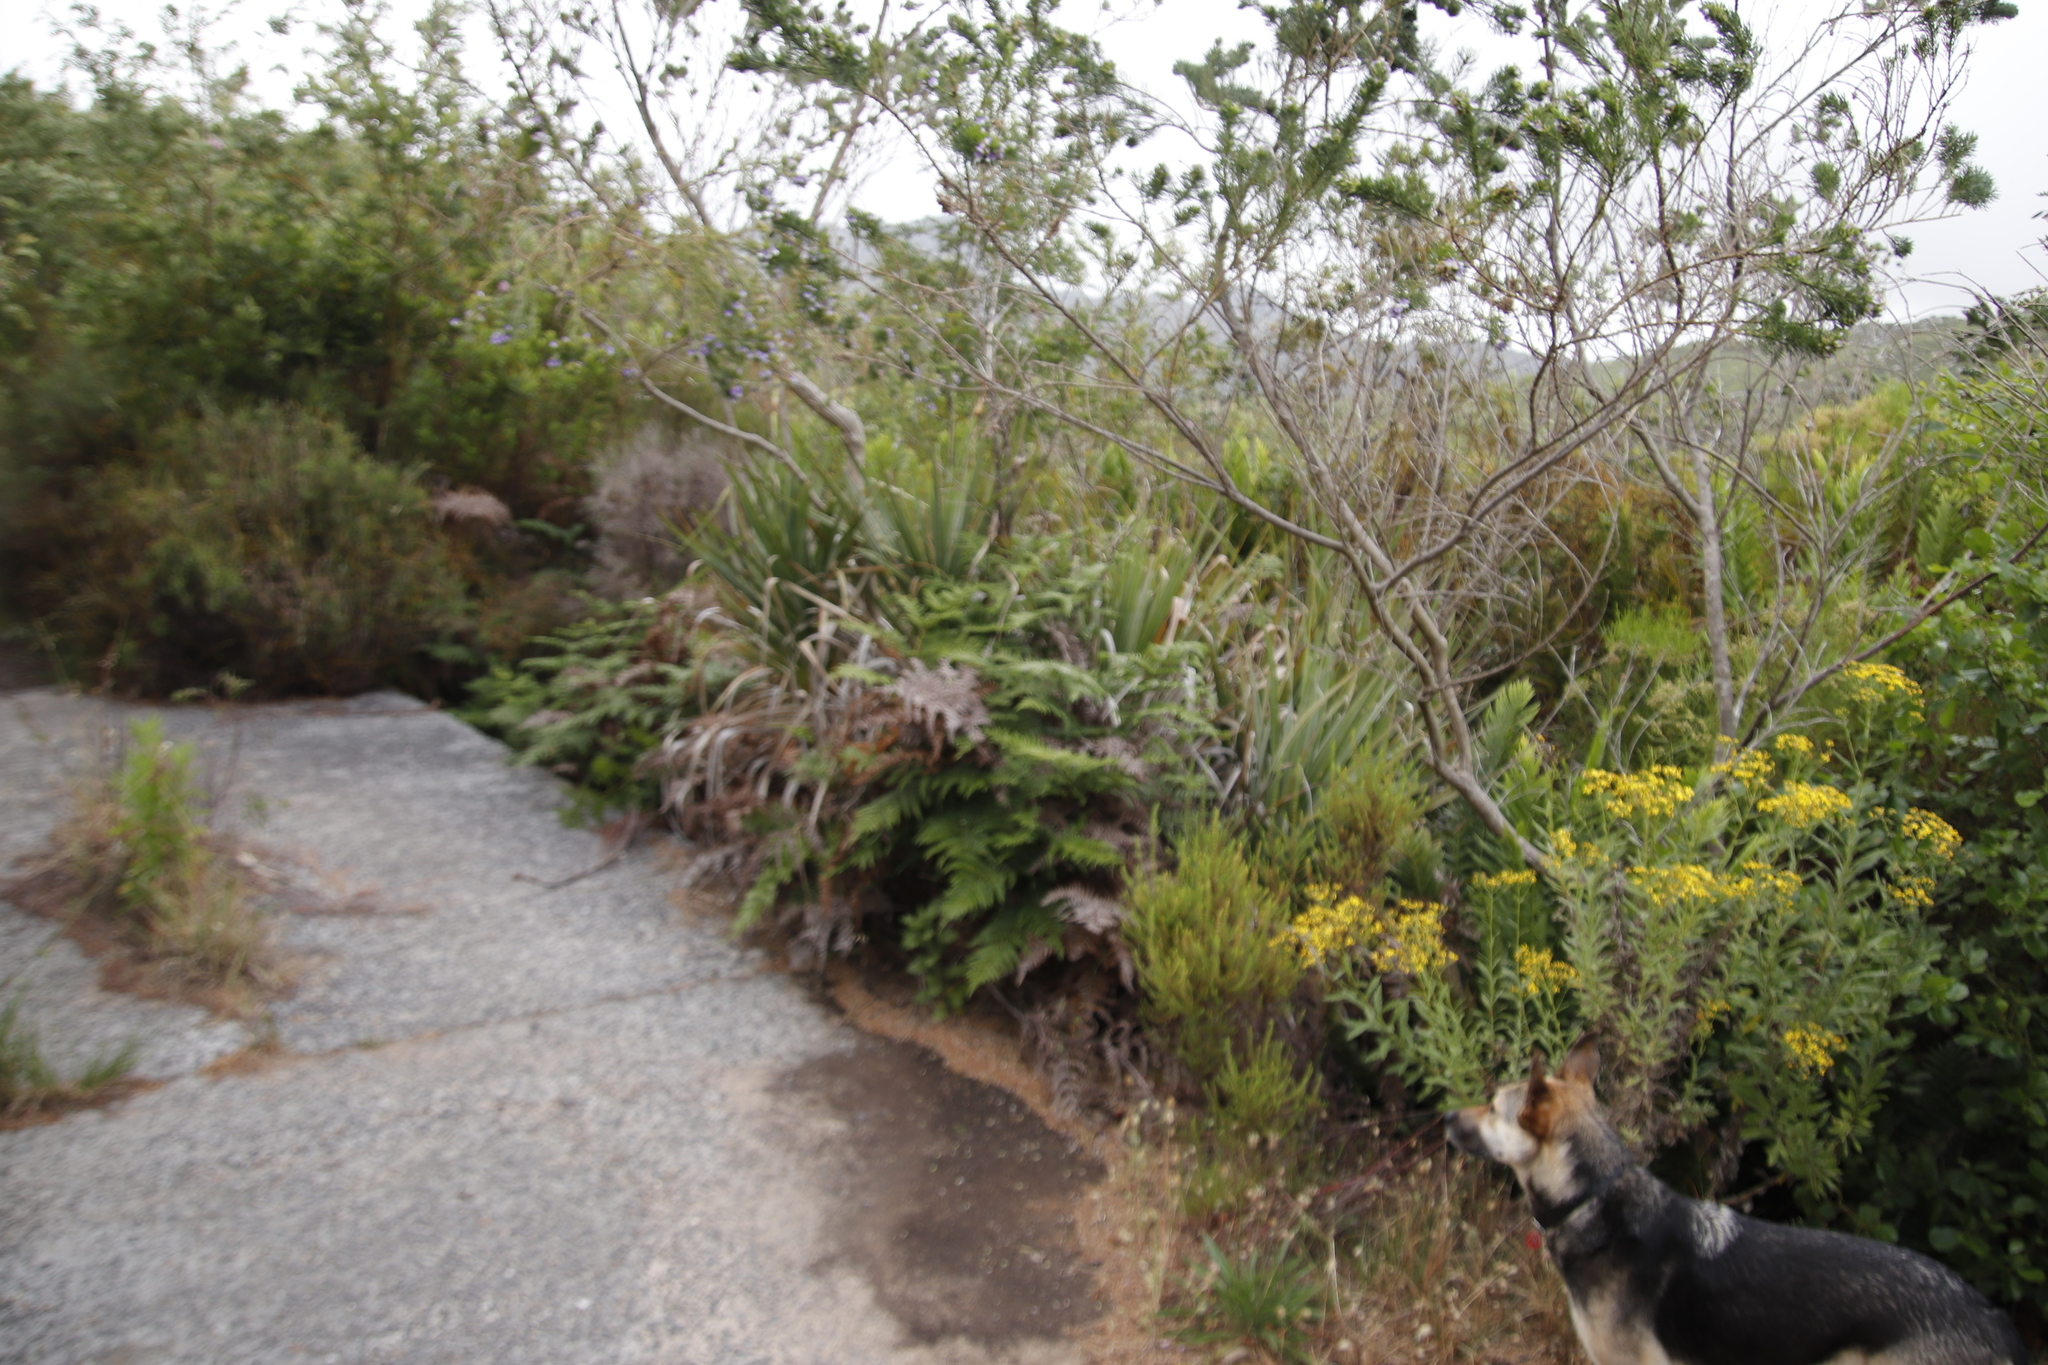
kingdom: Plantae
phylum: Tracheophyta
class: Polypodiopsida
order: Osmundales
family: Osmundaceae
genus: Todea
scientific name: Todea barbara
